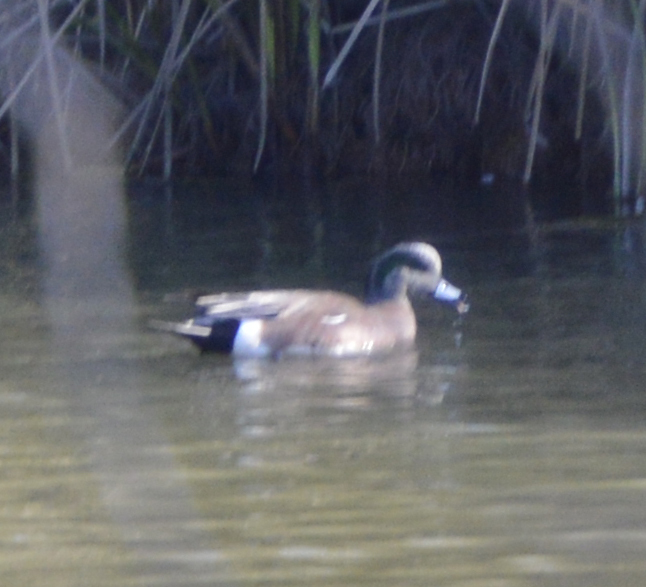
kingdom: Animalia
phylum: Chordata
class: Aves
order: Anseriformes
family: Anatidae
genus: Mareca
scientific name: Mareca americana
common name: American wigeon
